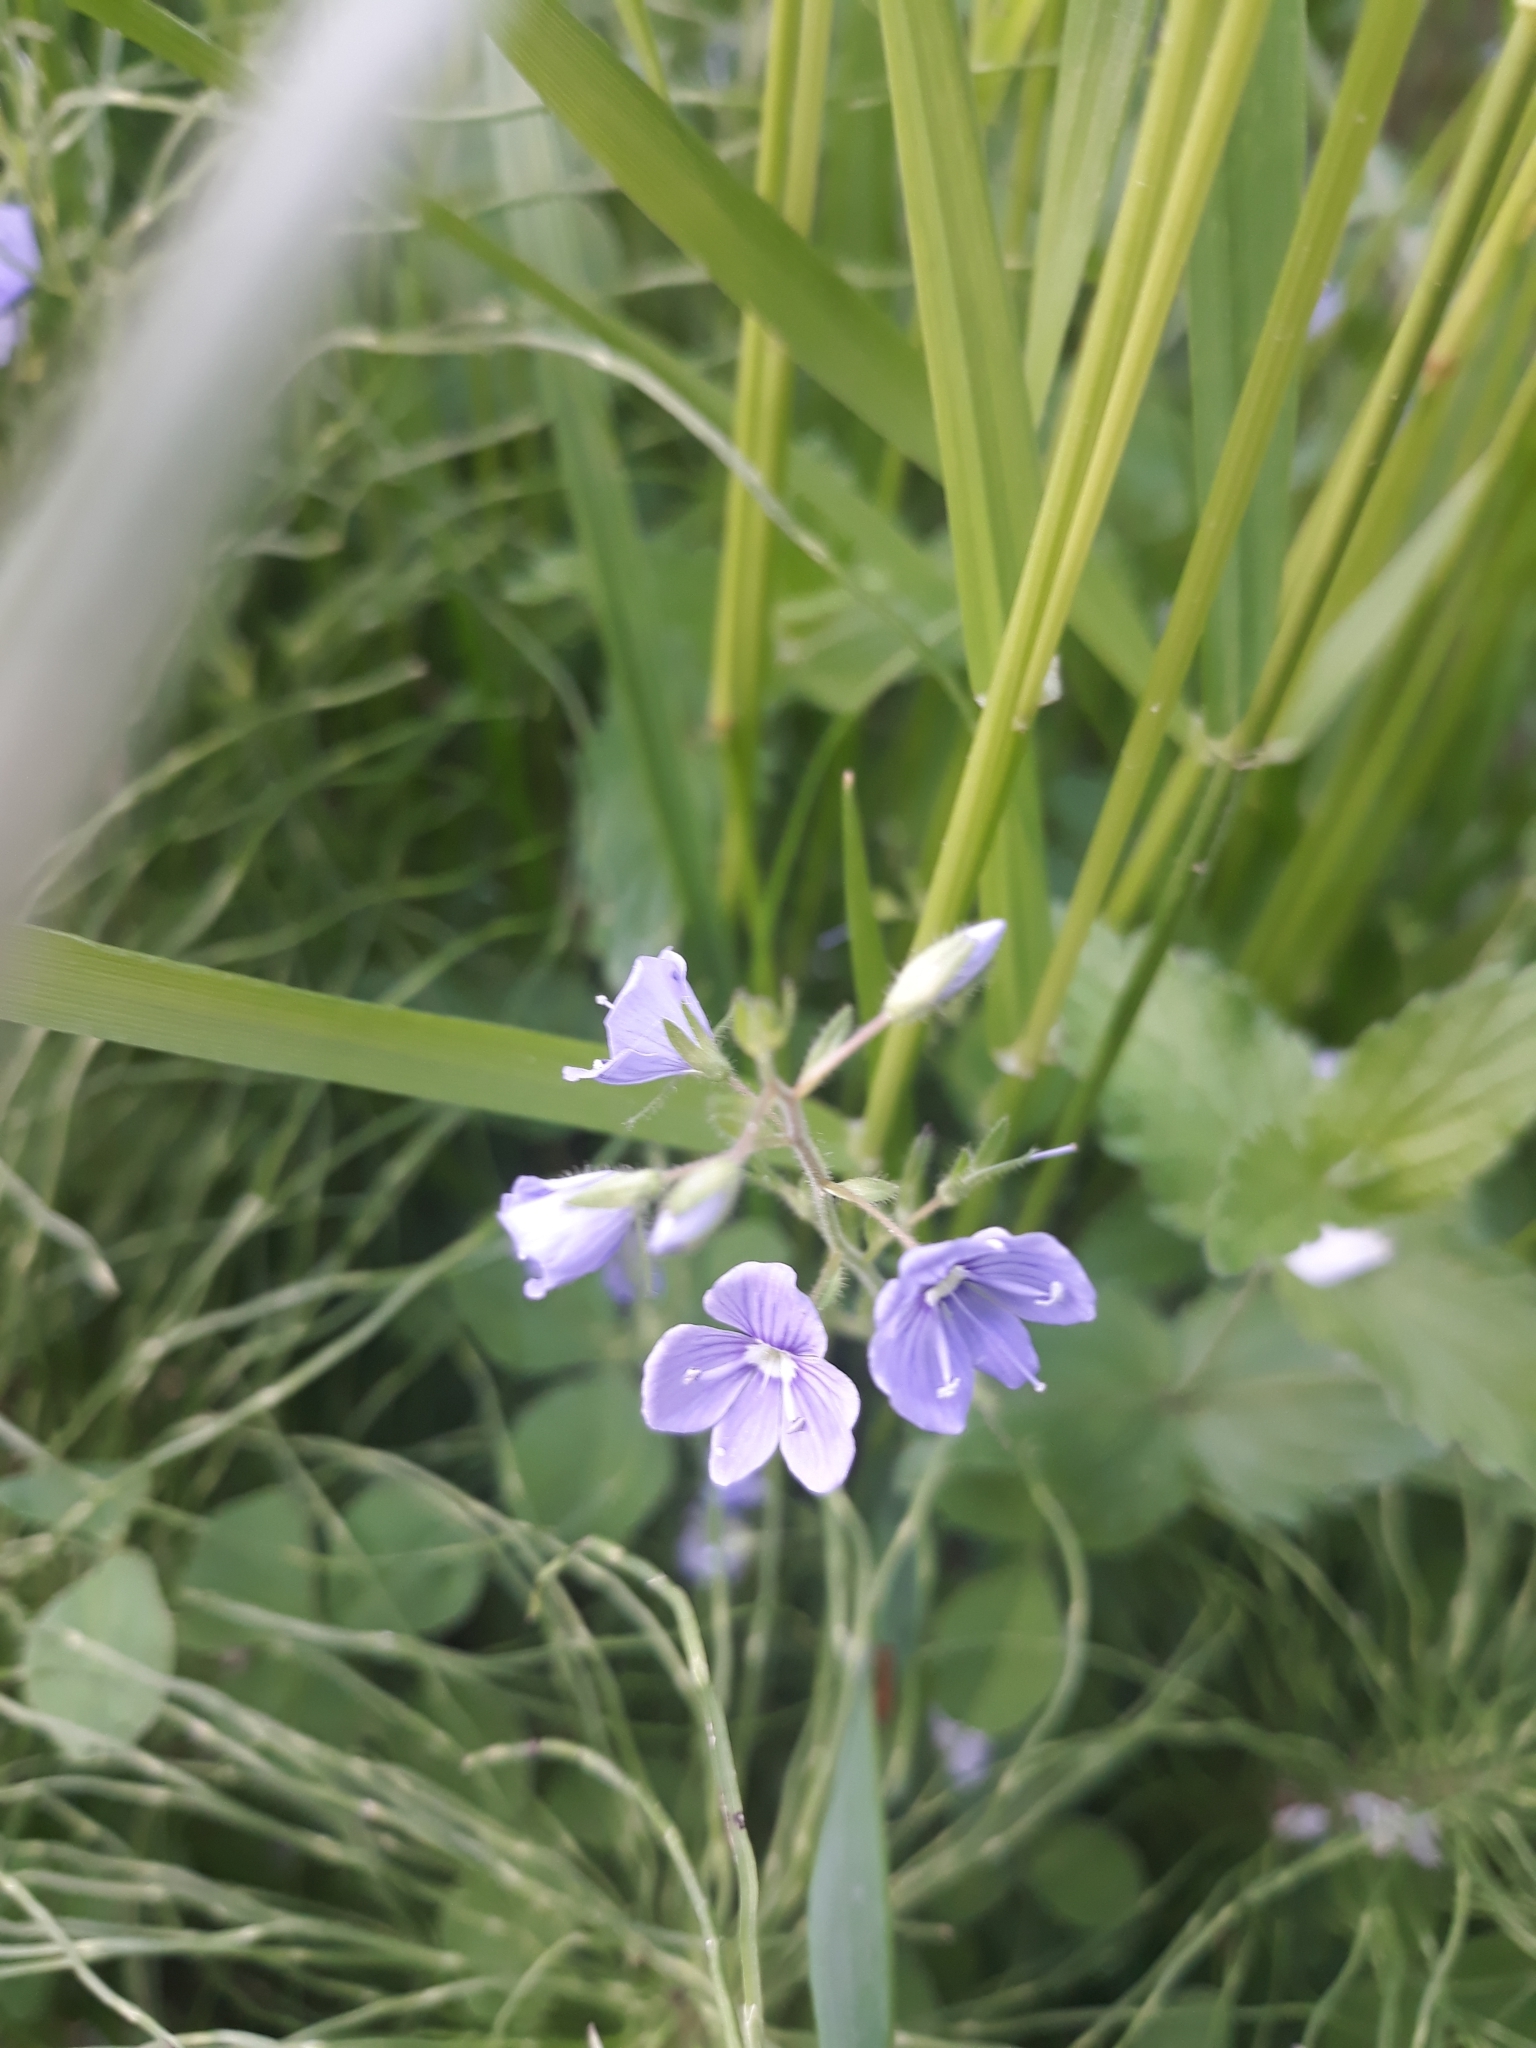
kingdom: Plantae
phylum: Tracheophyta
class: Magnoliopsida
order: Lamiales
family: Plantaginaceae
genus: Veronica
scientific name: Veronica chamaedrys
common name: Germander speedwell
